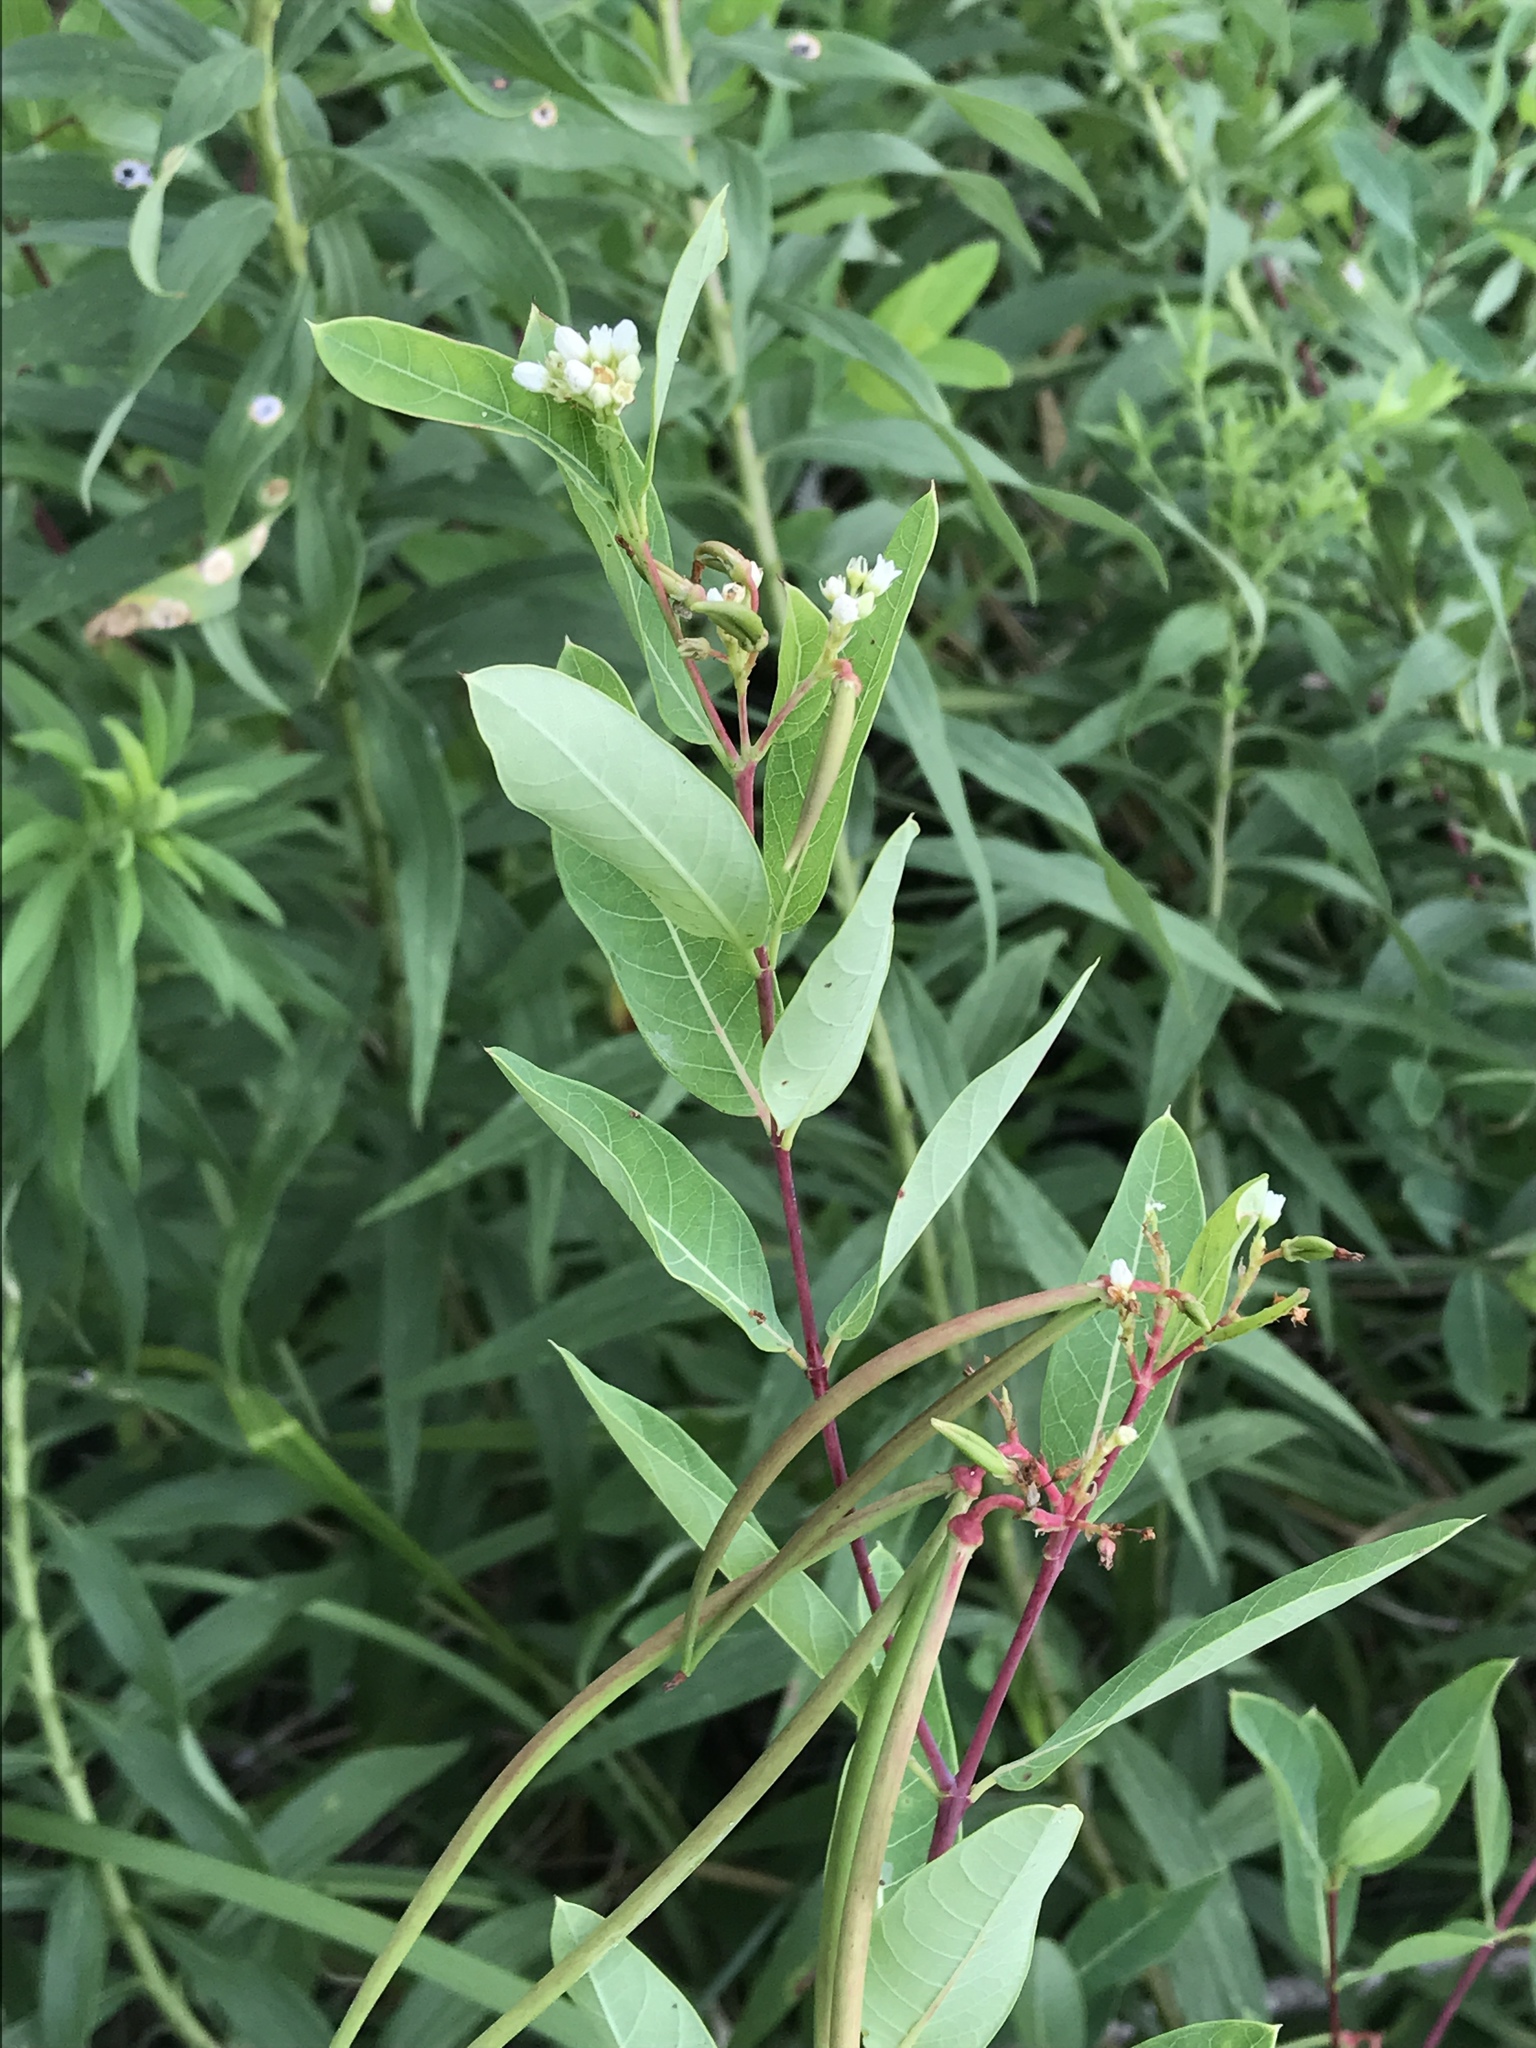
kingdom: Plantae
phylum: Tracheophyta
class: Magnoliopsida
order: Gentianales
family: Apocynaceae
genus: Apocynum
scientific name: Apocynum cannabinum
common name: Hemp dogbane
